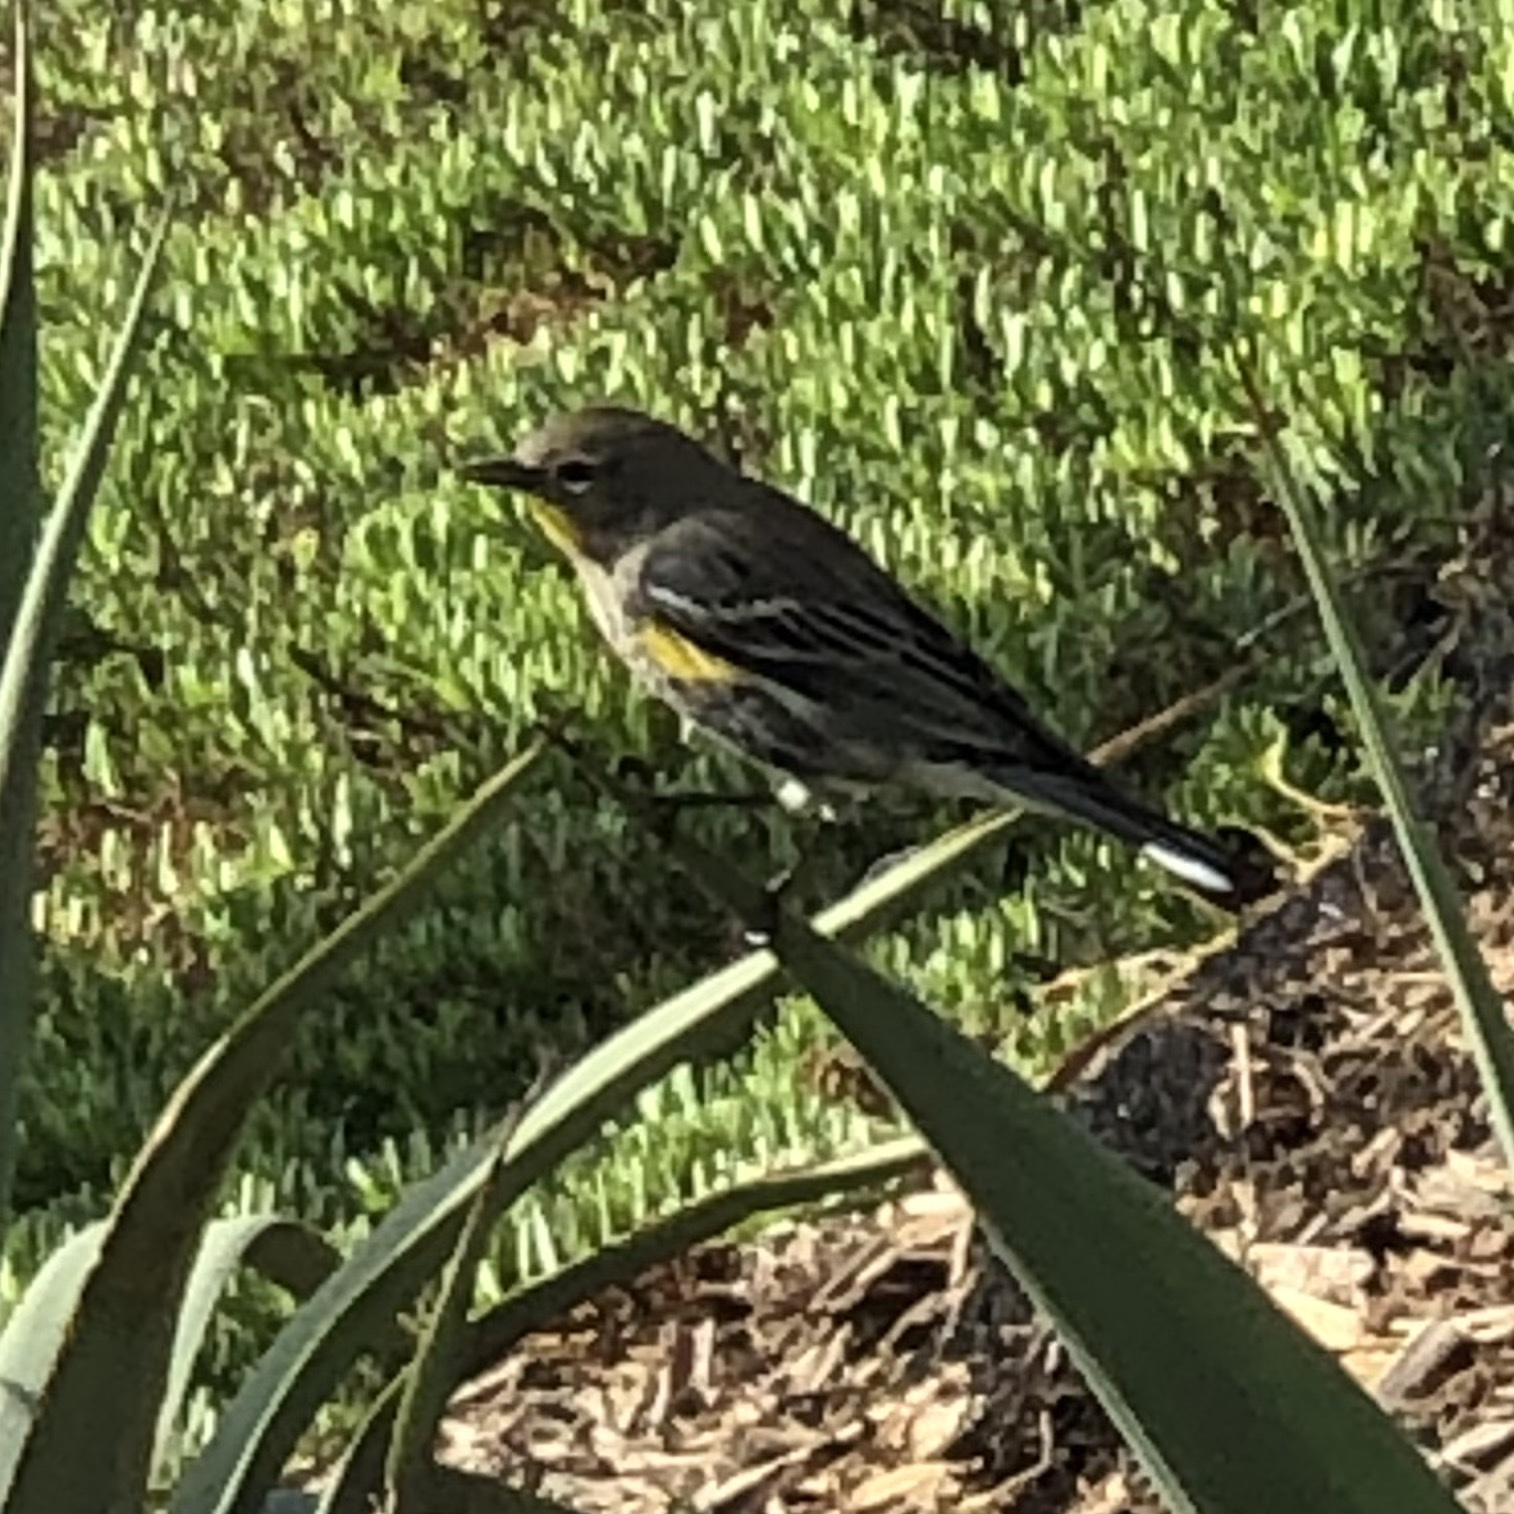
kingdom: Animalia
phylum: Chordata
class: Aves
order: Passeriformes
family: Parulidae
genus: Setophaga
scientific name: Setophaga auduboni
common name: Audubon's warbler
